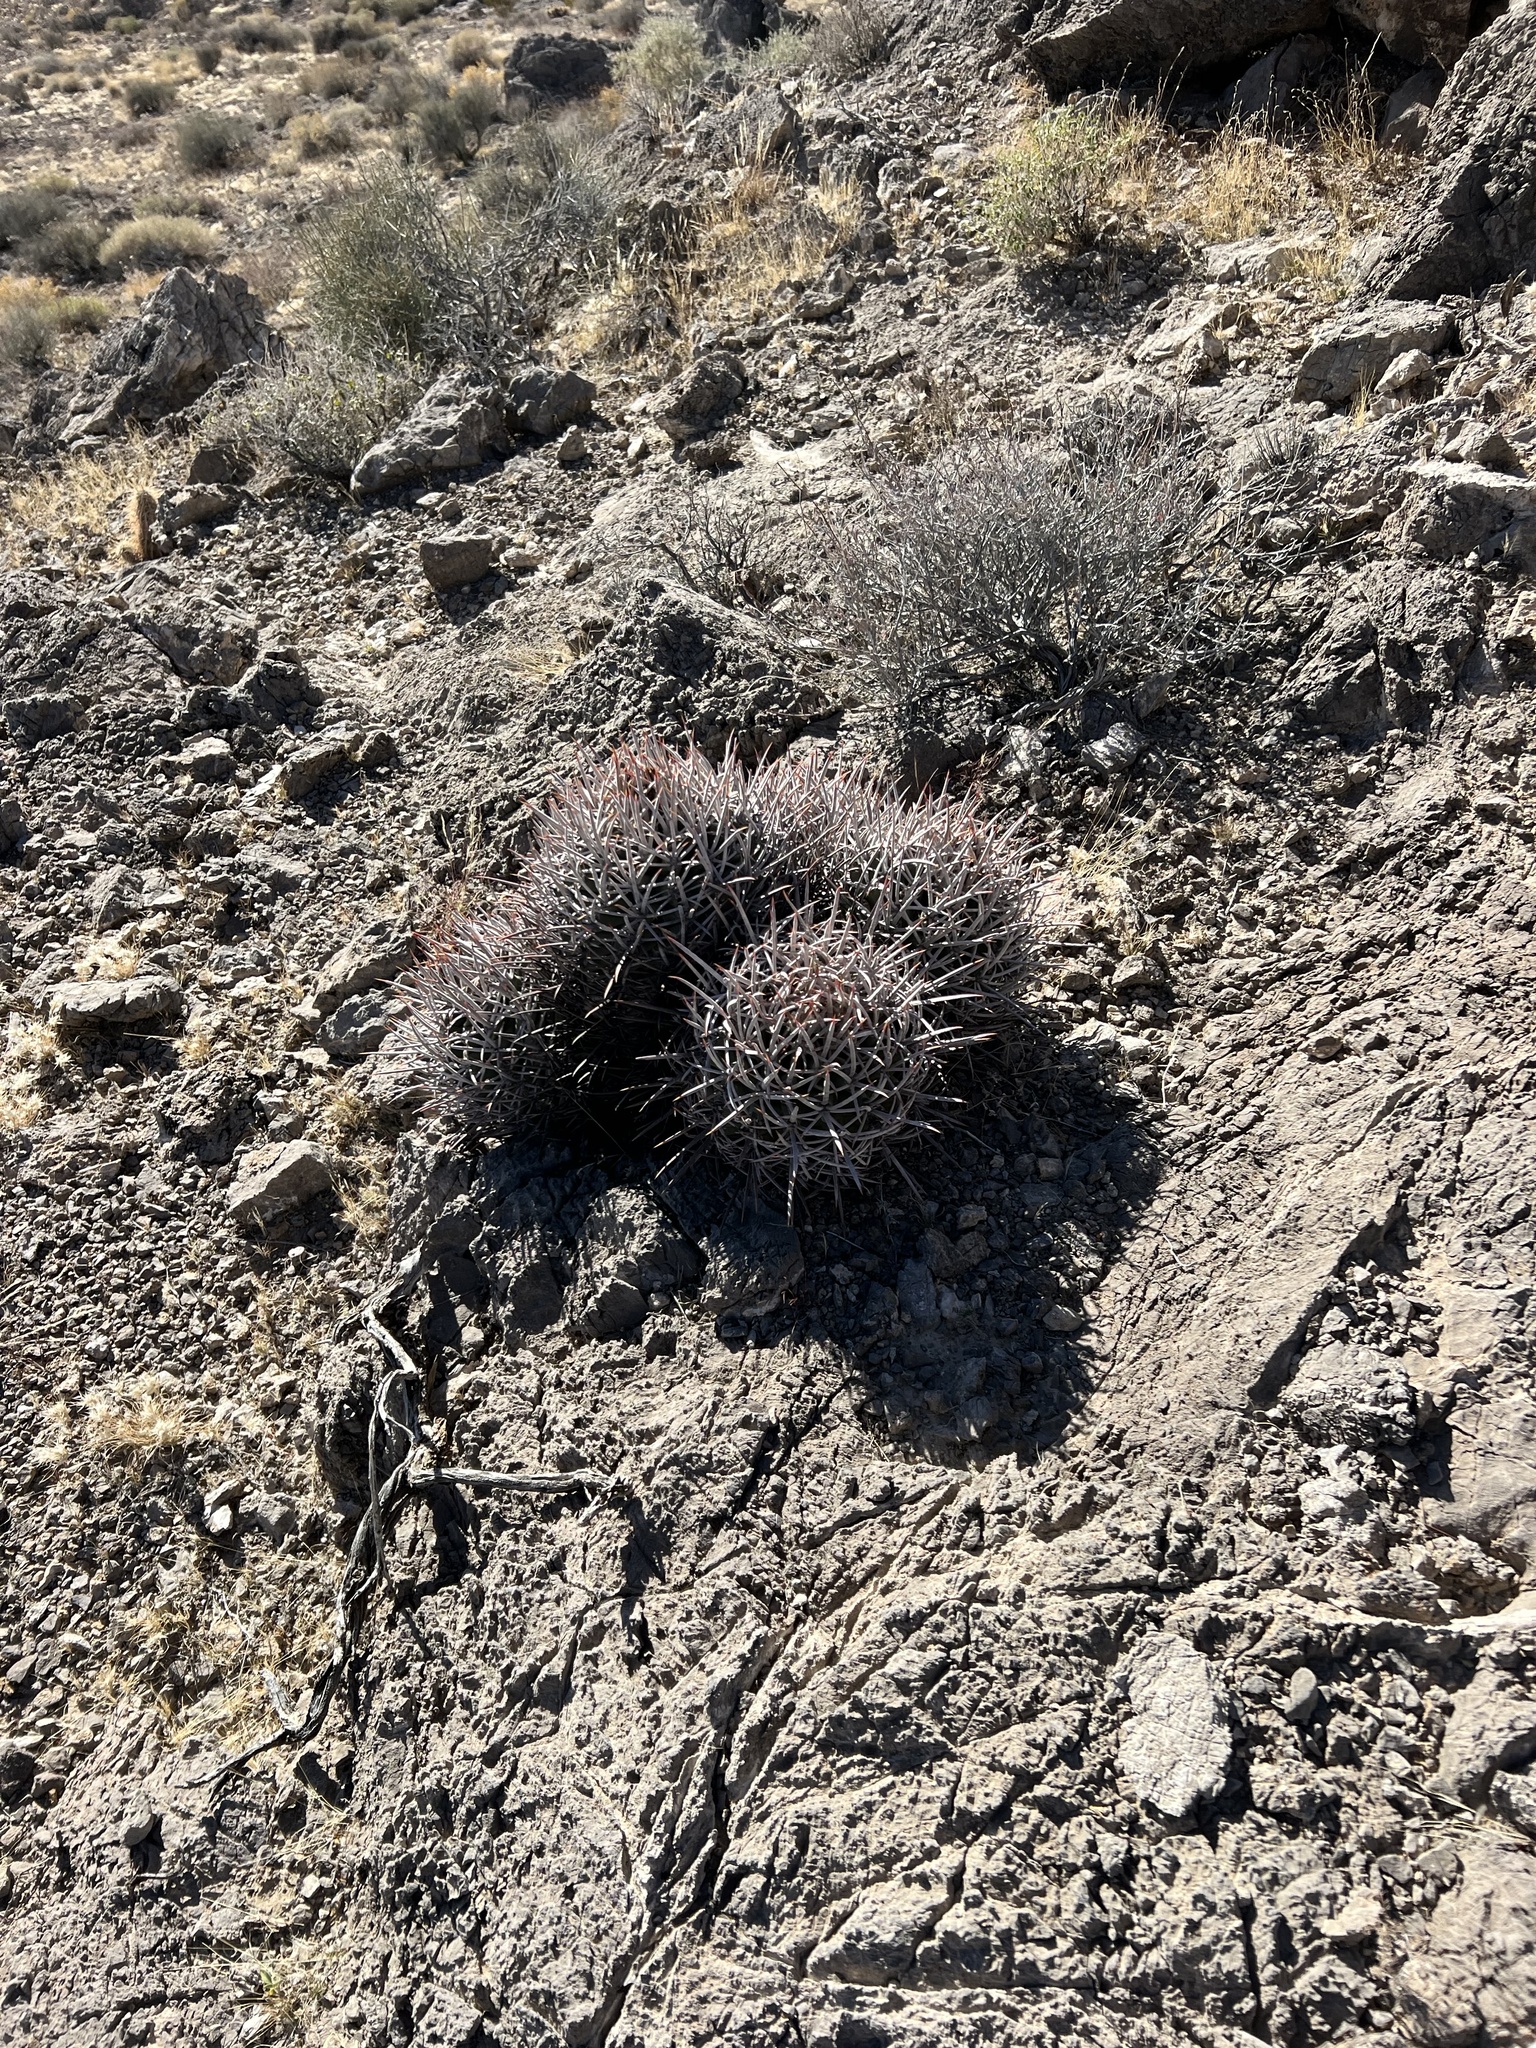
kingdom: Plantae
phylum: Tracheophyta
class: Magnoliopsida
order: Caryophyllales
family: Cactaceae
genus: Echinocactus
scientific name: Echinocactus polycephalus
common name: Cottontop cactus
